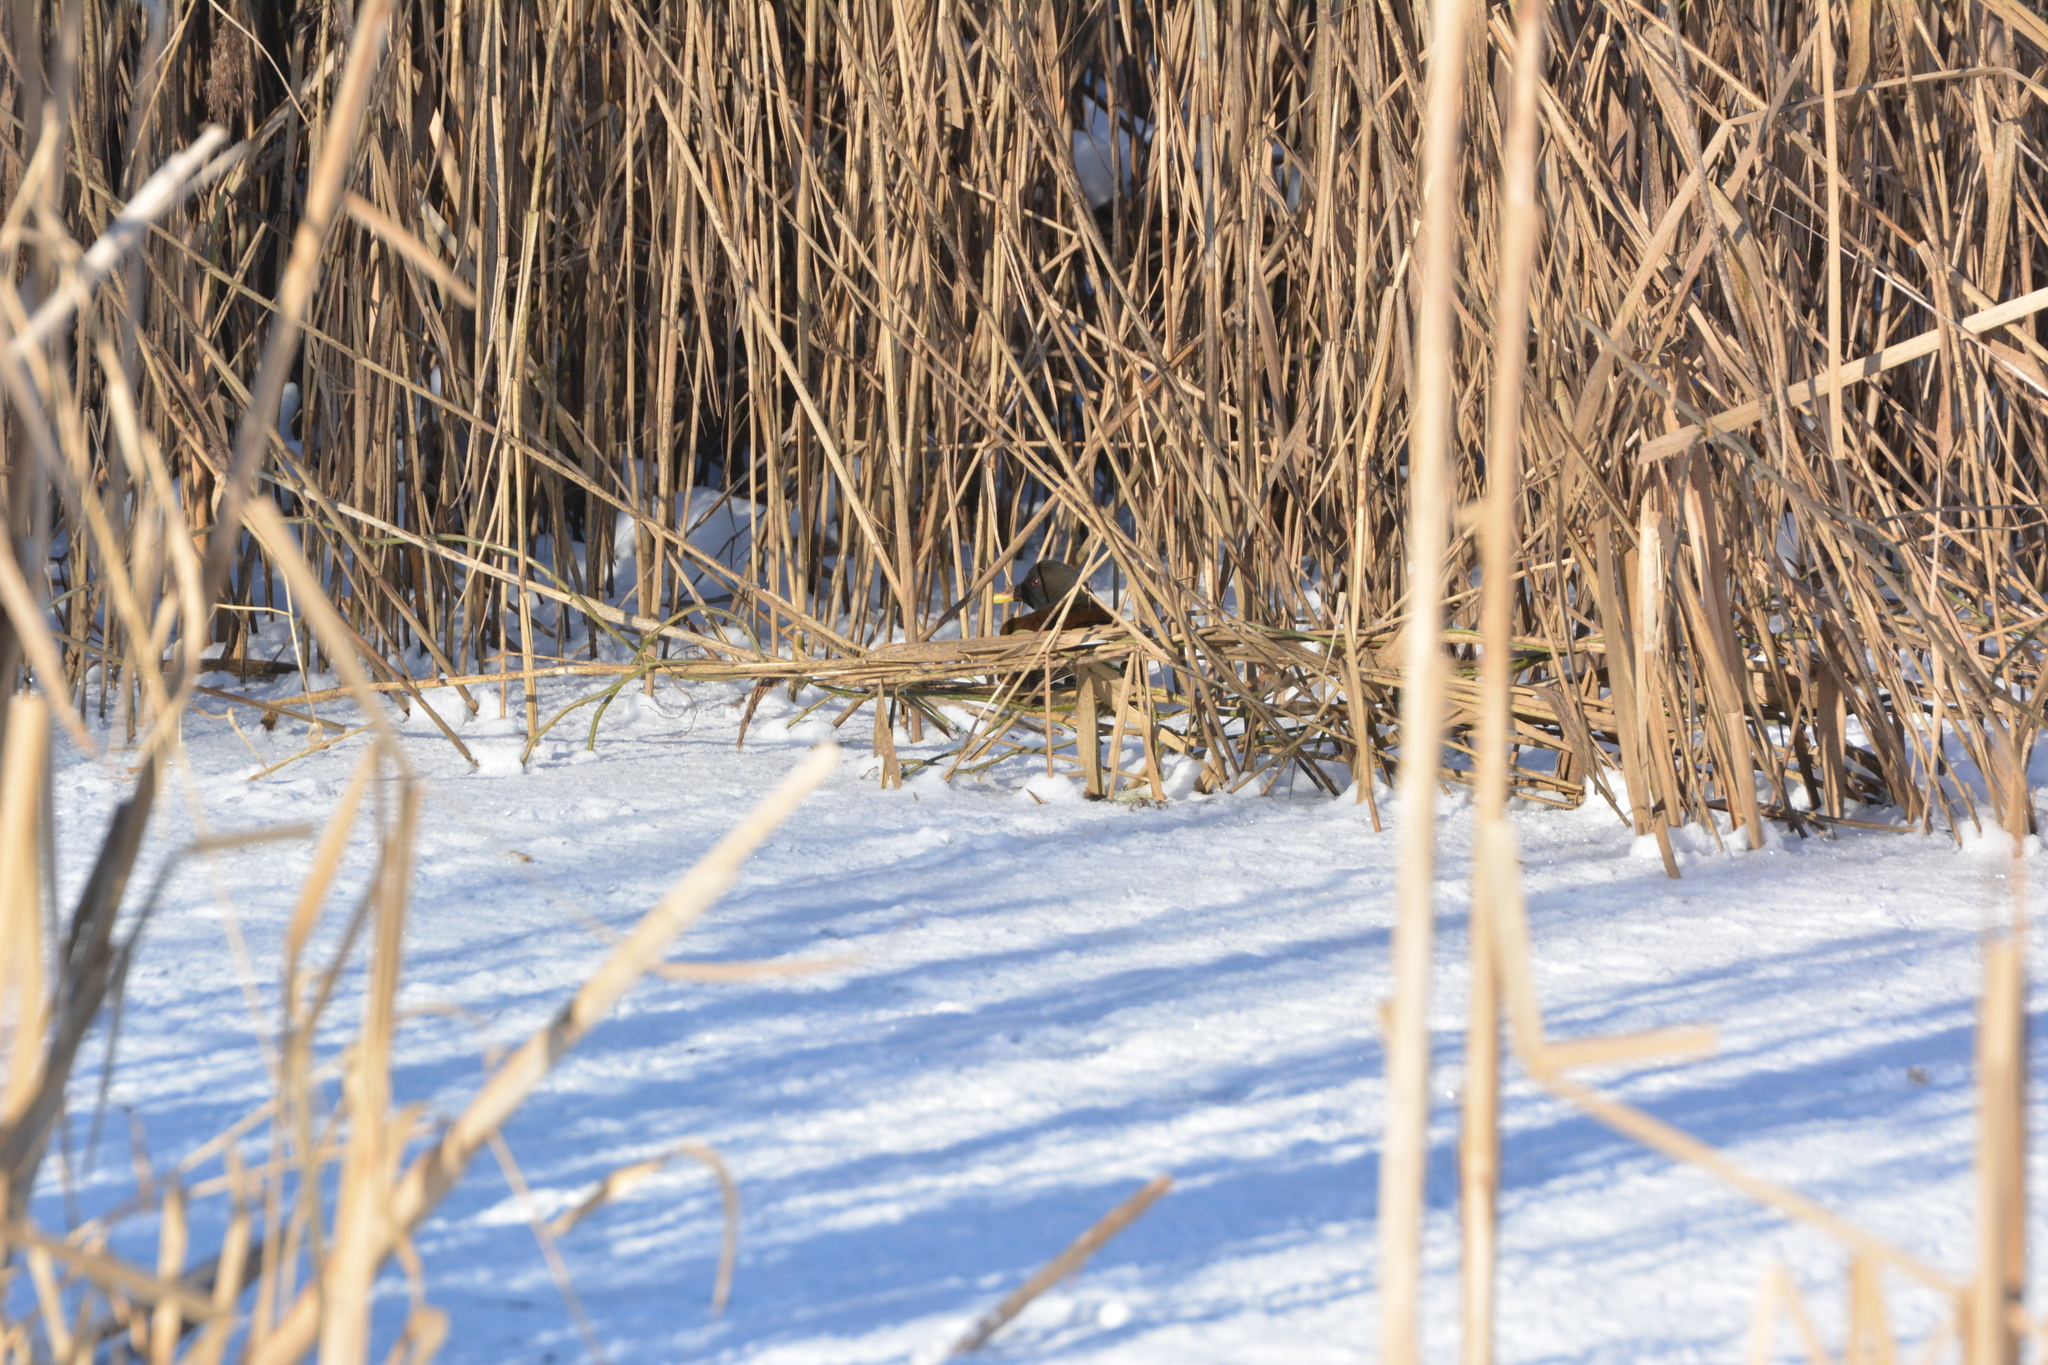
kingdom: Animalia
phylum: Chordata
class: Aves
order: Gruiformes
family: Rallidae
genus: Gallinula
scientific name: Gallinula chloropus
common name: Common moorhen
